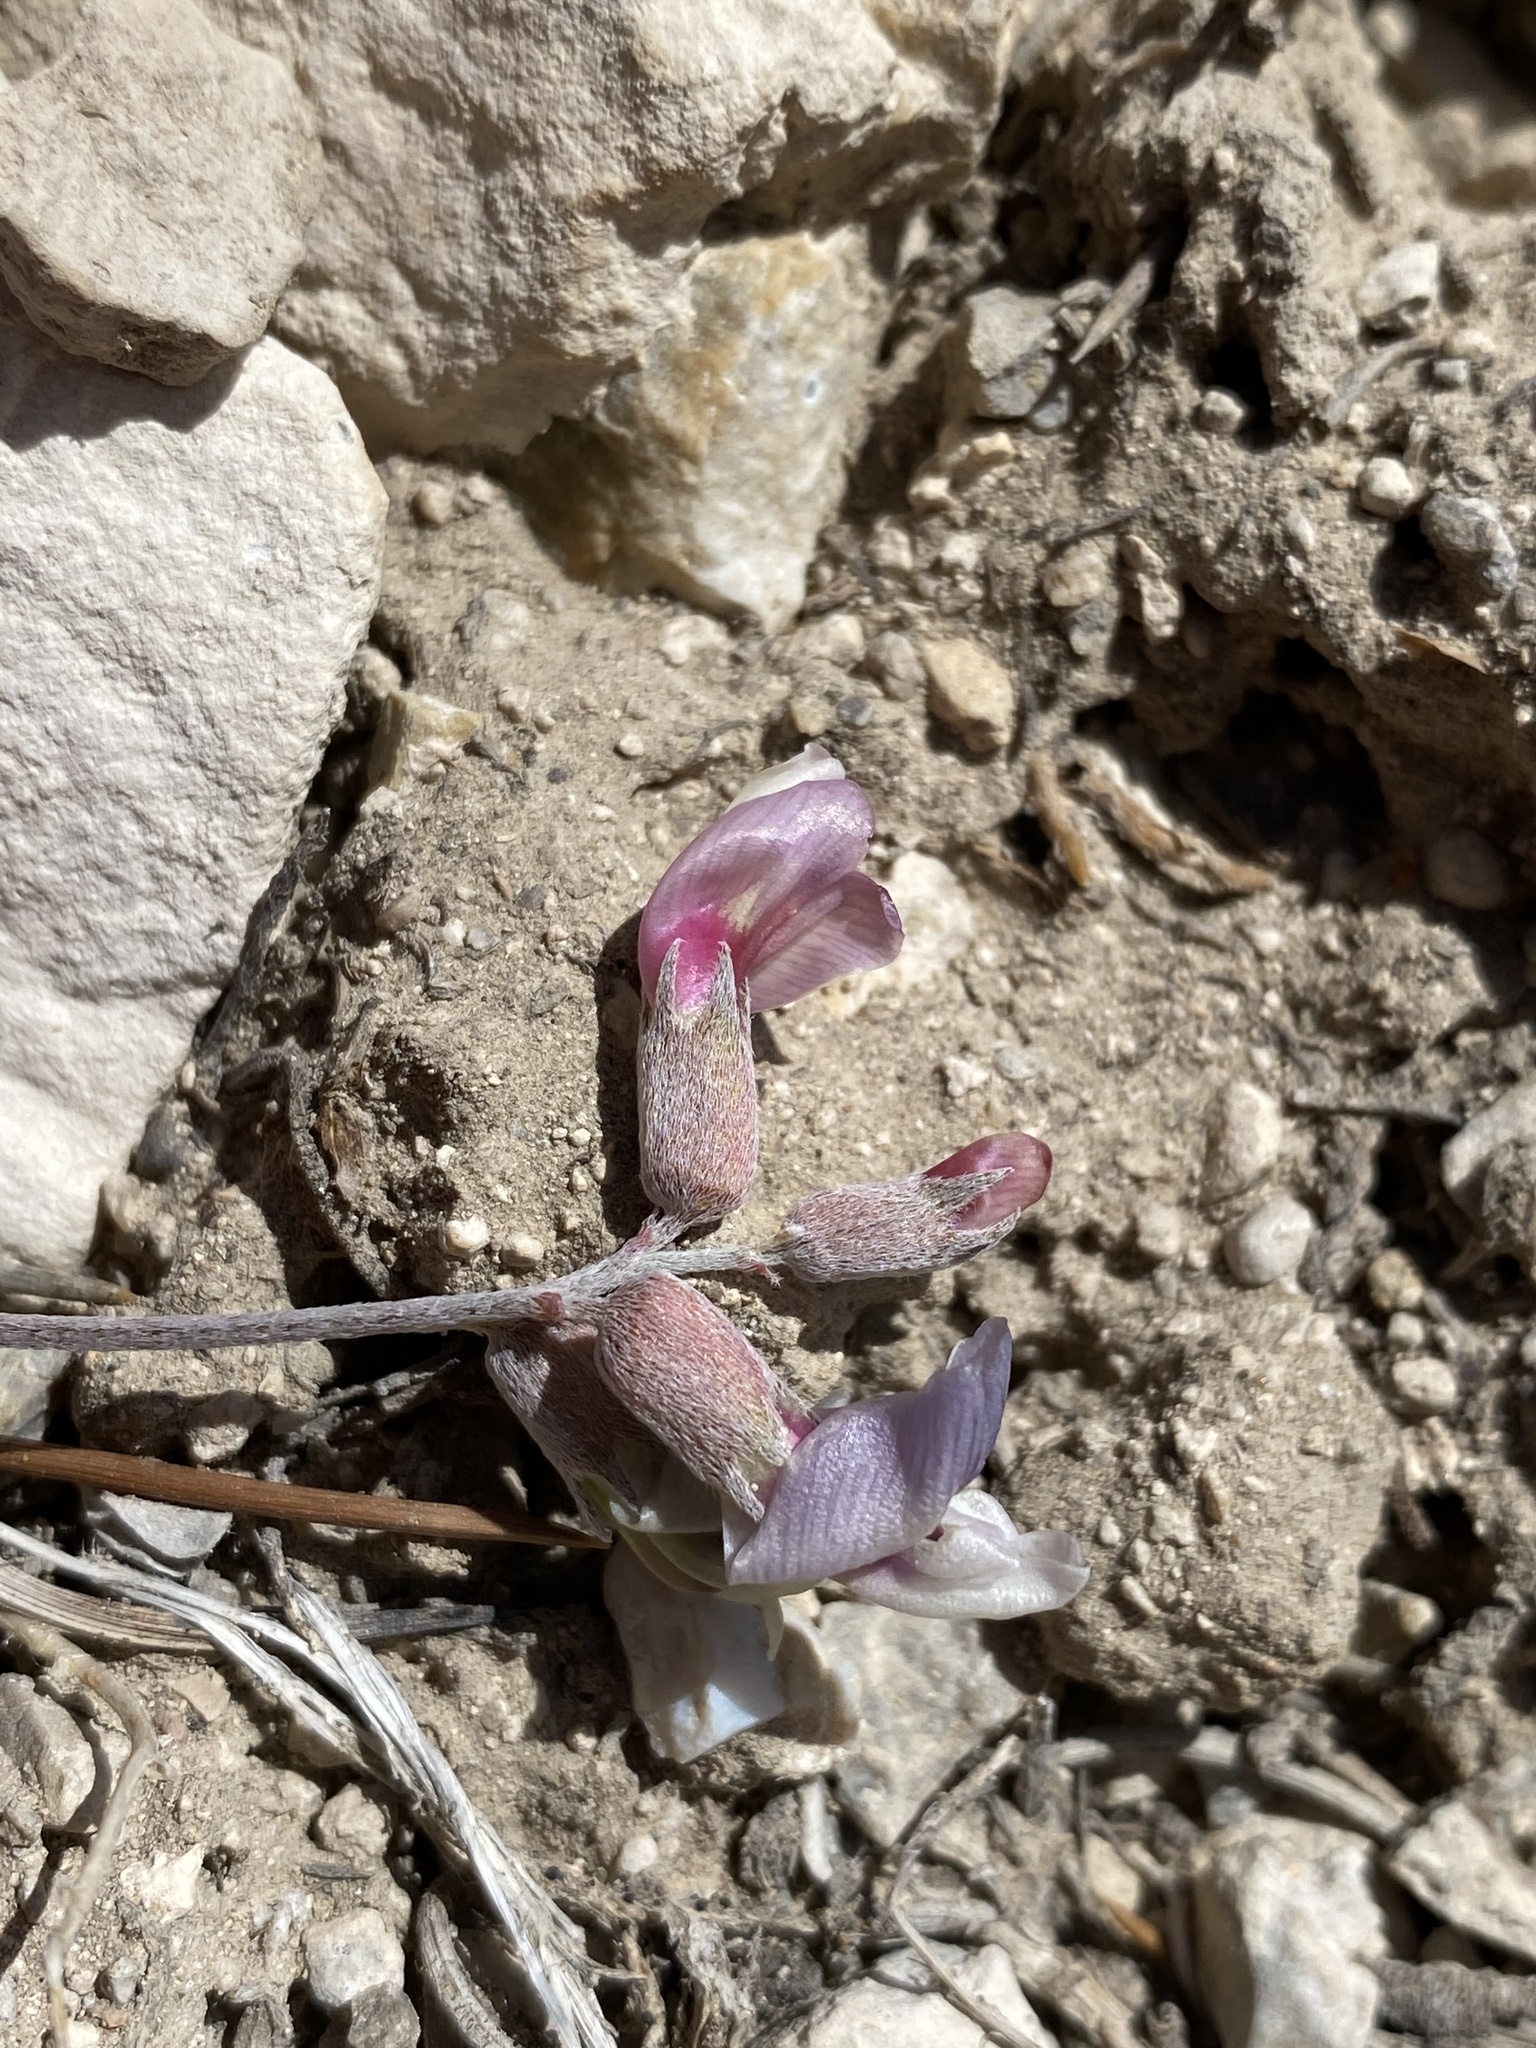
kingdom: Plantae
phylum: Tracheophyta
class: Magnoliopsida
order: Fabales
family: Fabaceae
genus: Astragalus
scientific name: Astragalus calycosus
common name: King's milkvetch
